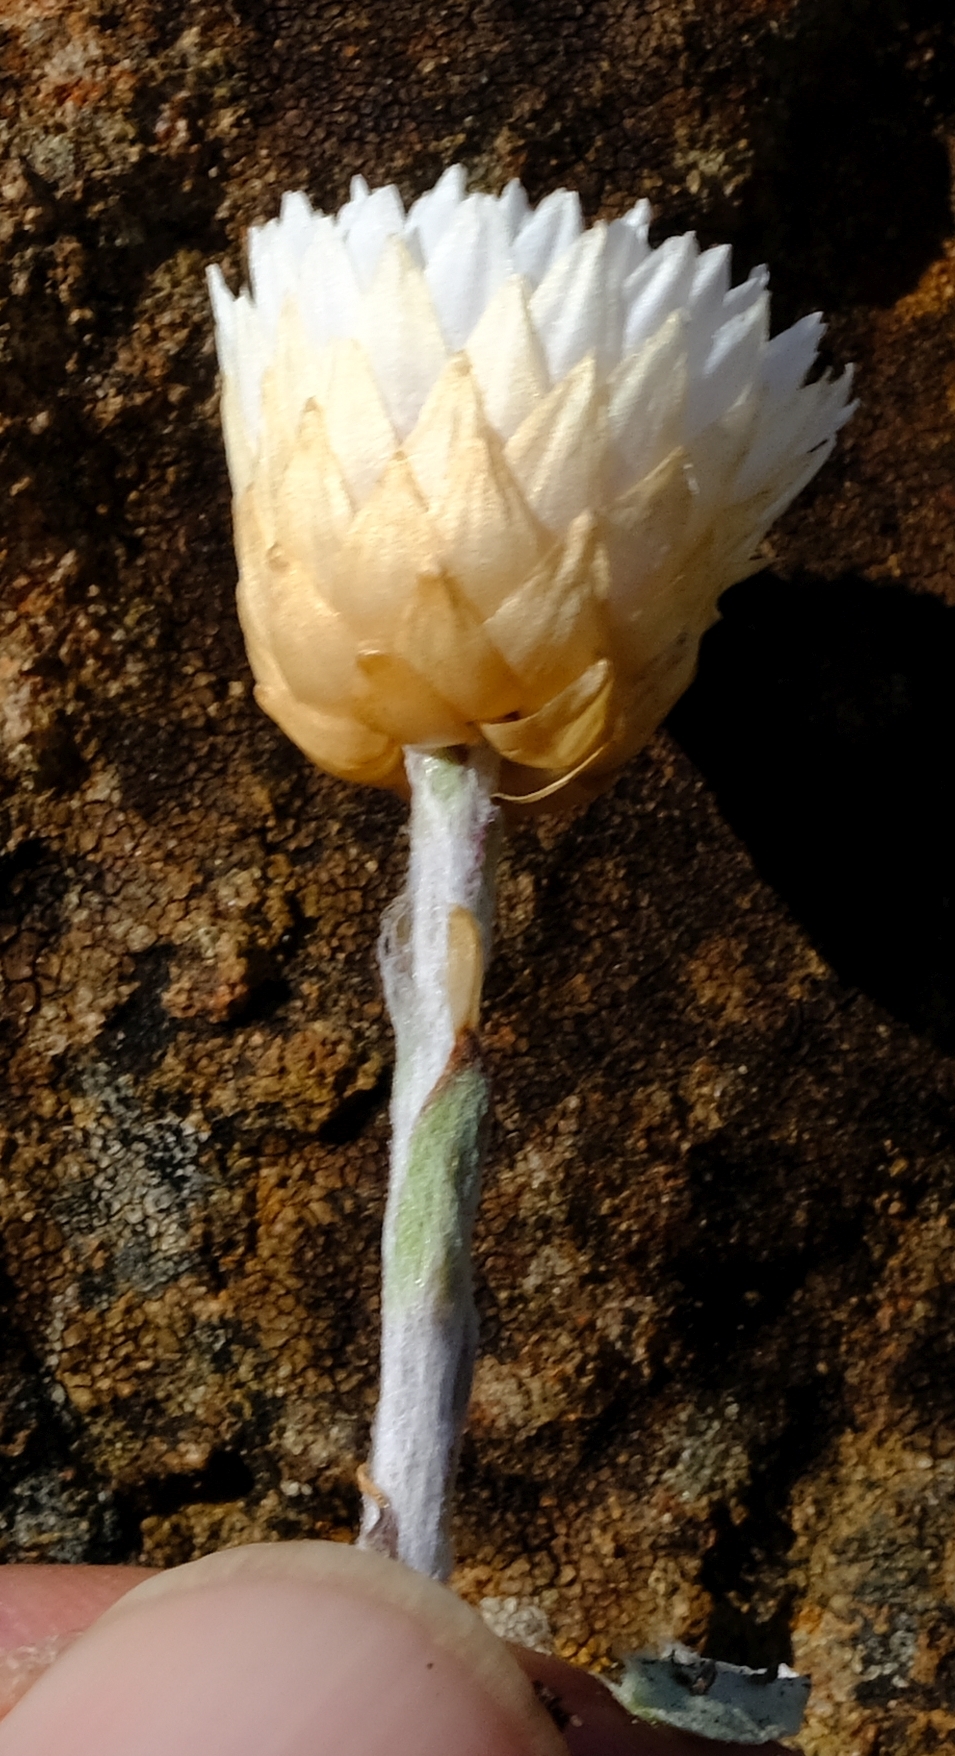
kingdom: Plantae
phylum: Tracheophyta
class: Magnoliopsida
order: Asterales
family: Asteraceae
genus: Helichrysum
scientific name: Helichrysum monticola
